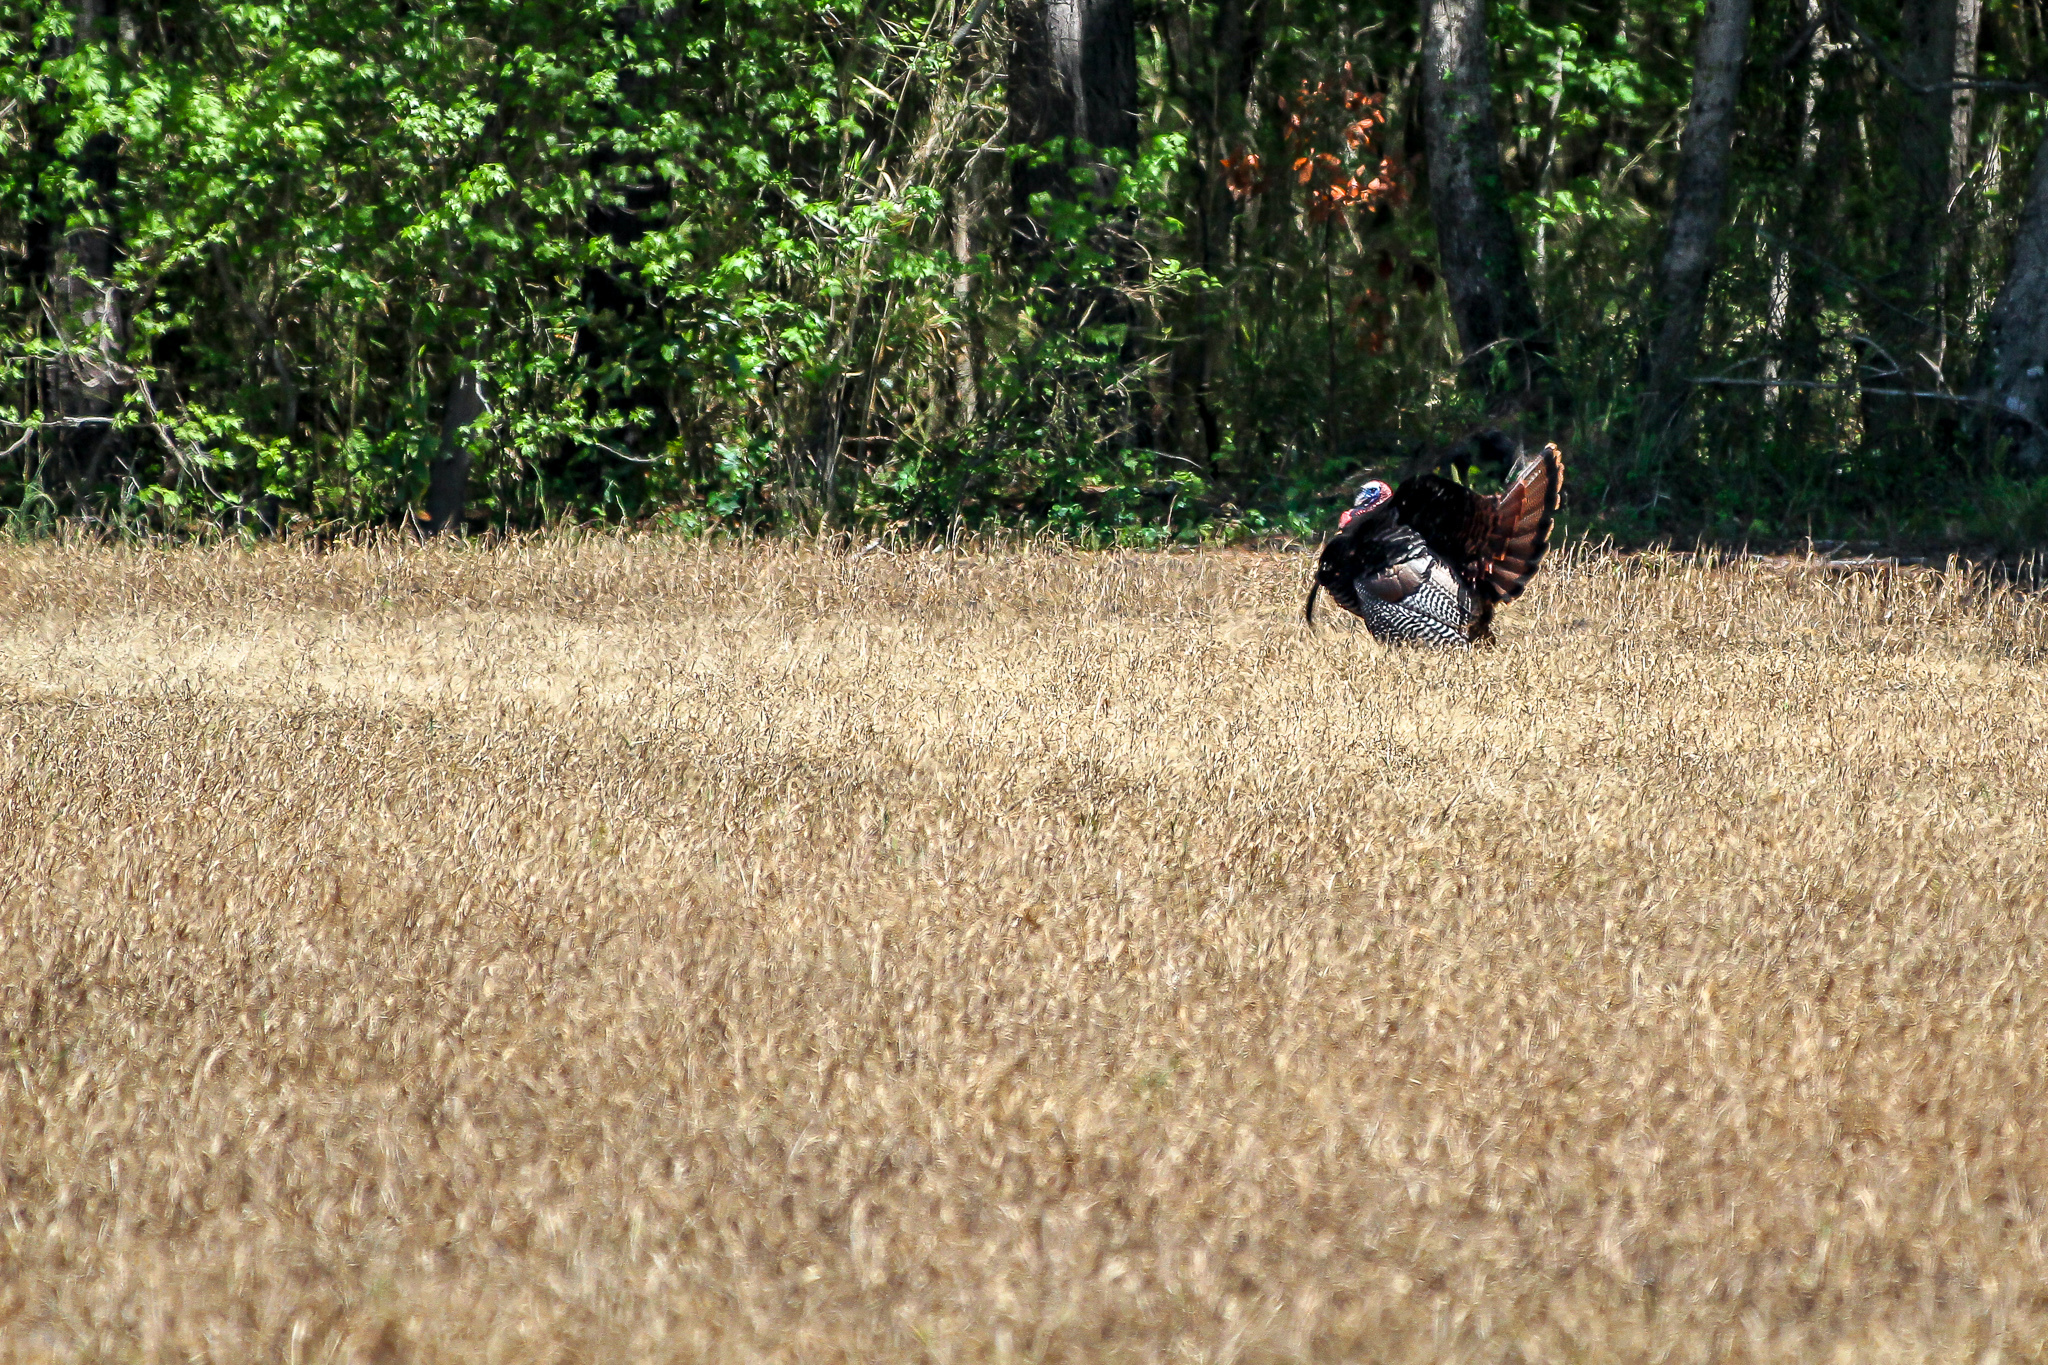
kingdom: Animalia
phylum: Chordata
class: Aves
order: Galliformes
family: Phasianidae
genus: Meleagris
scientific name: Meleagris gallopavo
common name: Wild turkey
